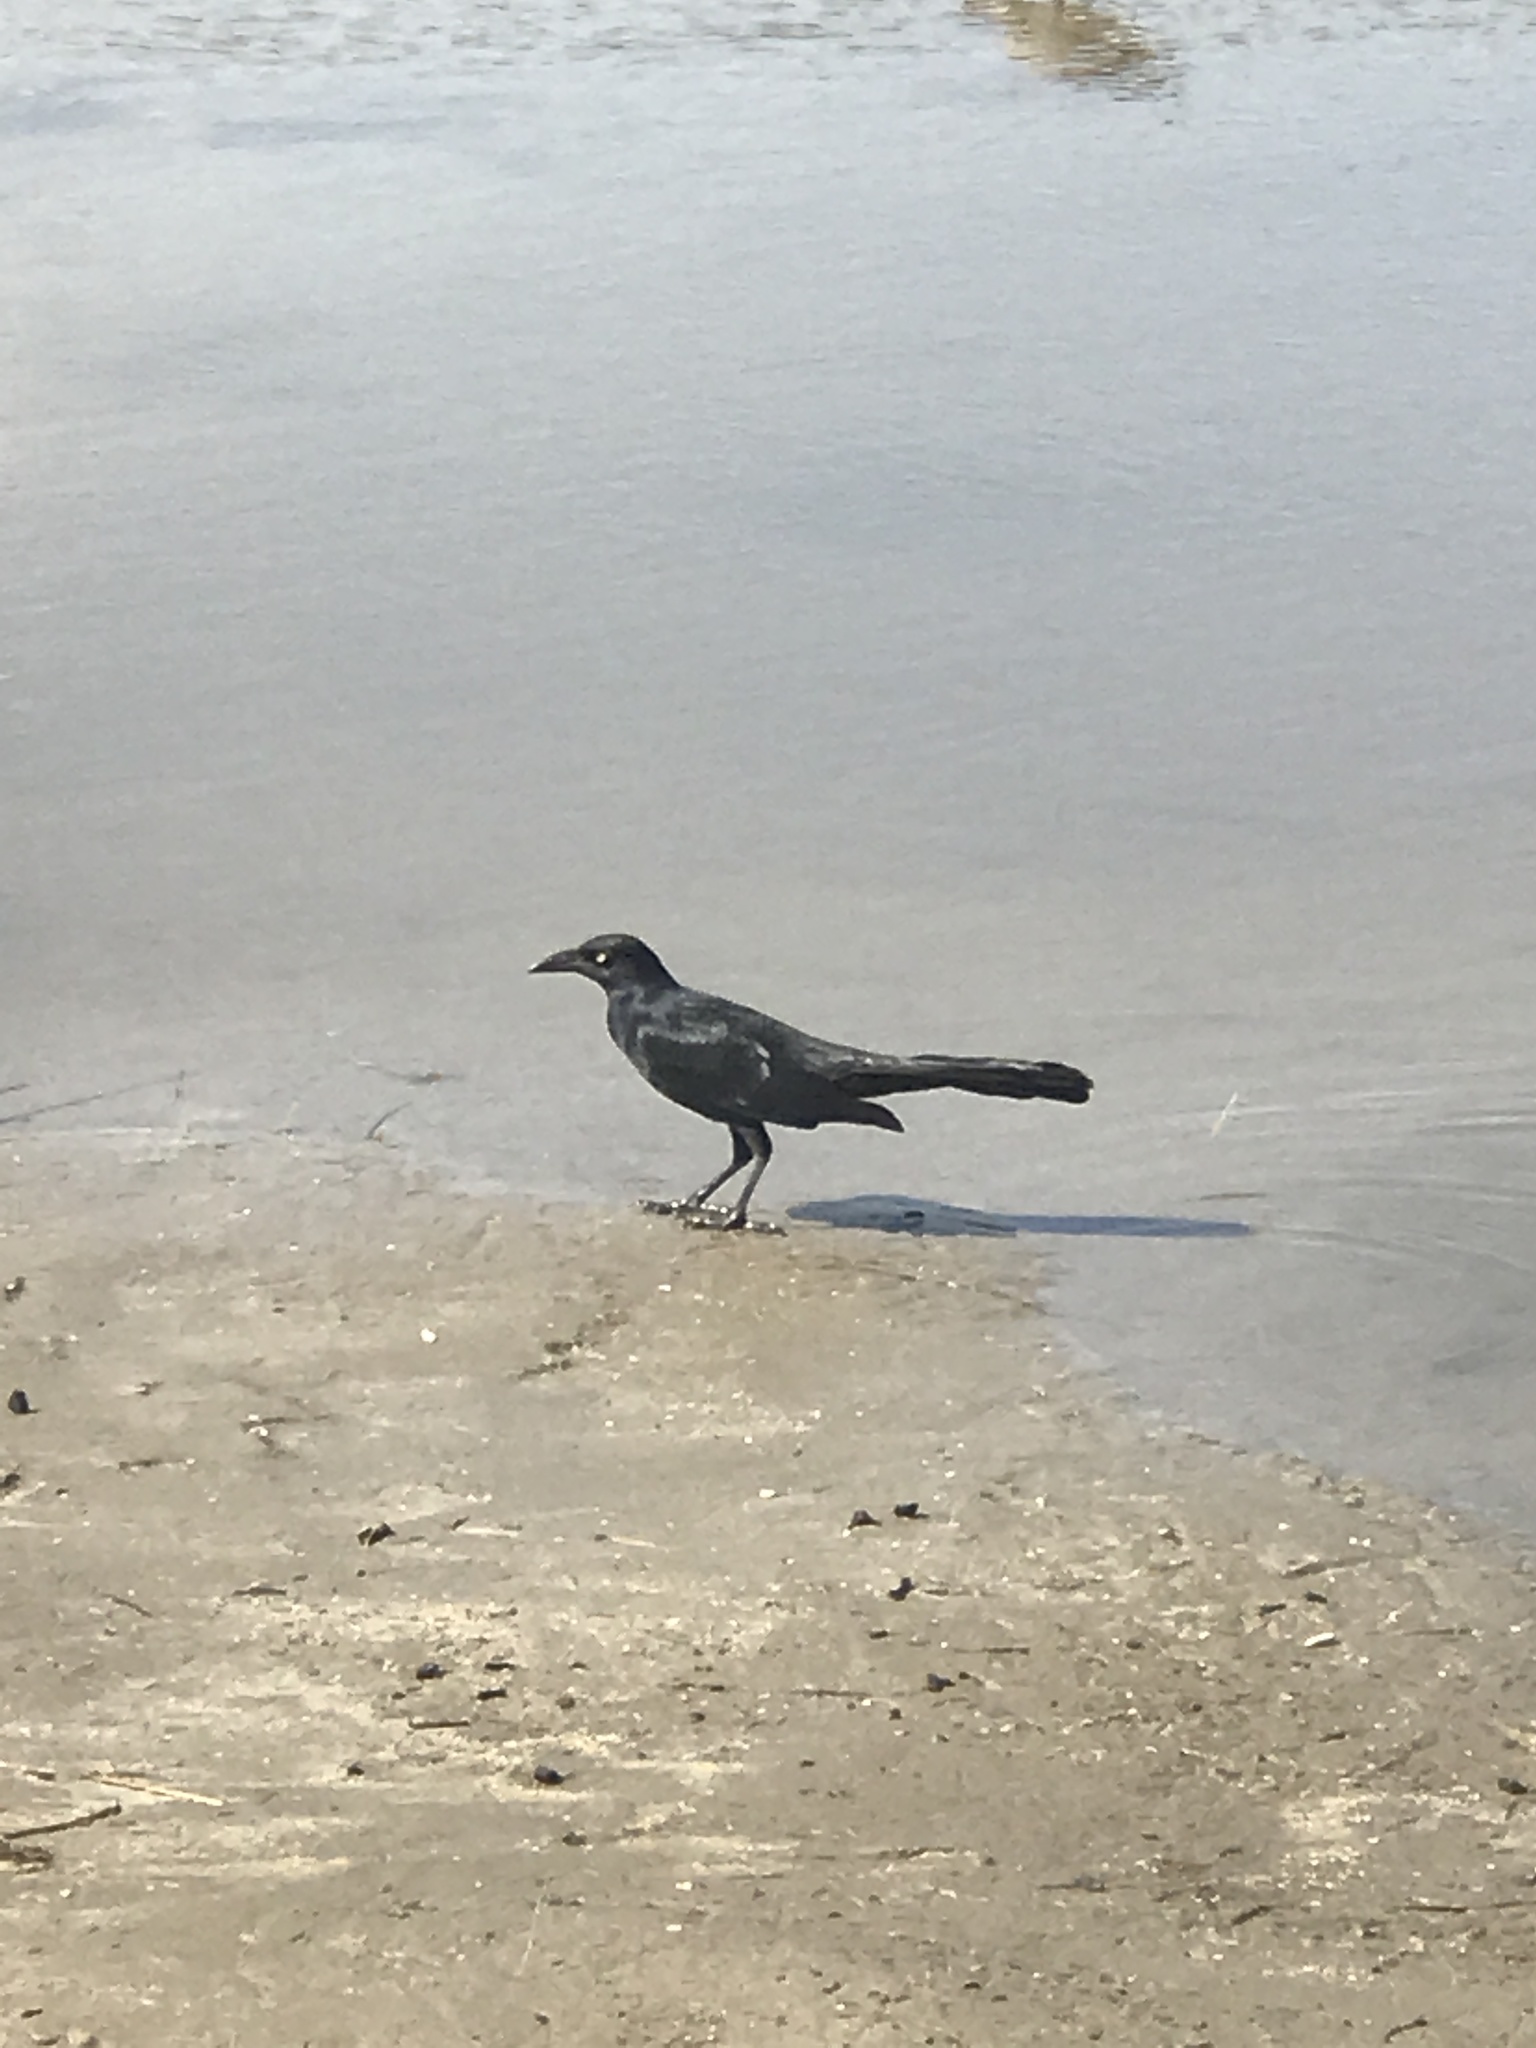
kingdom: Animalia
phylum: Chordata
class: Aves
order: Passeriformes
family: Icteridae
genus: Quiscalus
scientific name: Quiscalus mexicanus
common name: Great-tailed grackle
